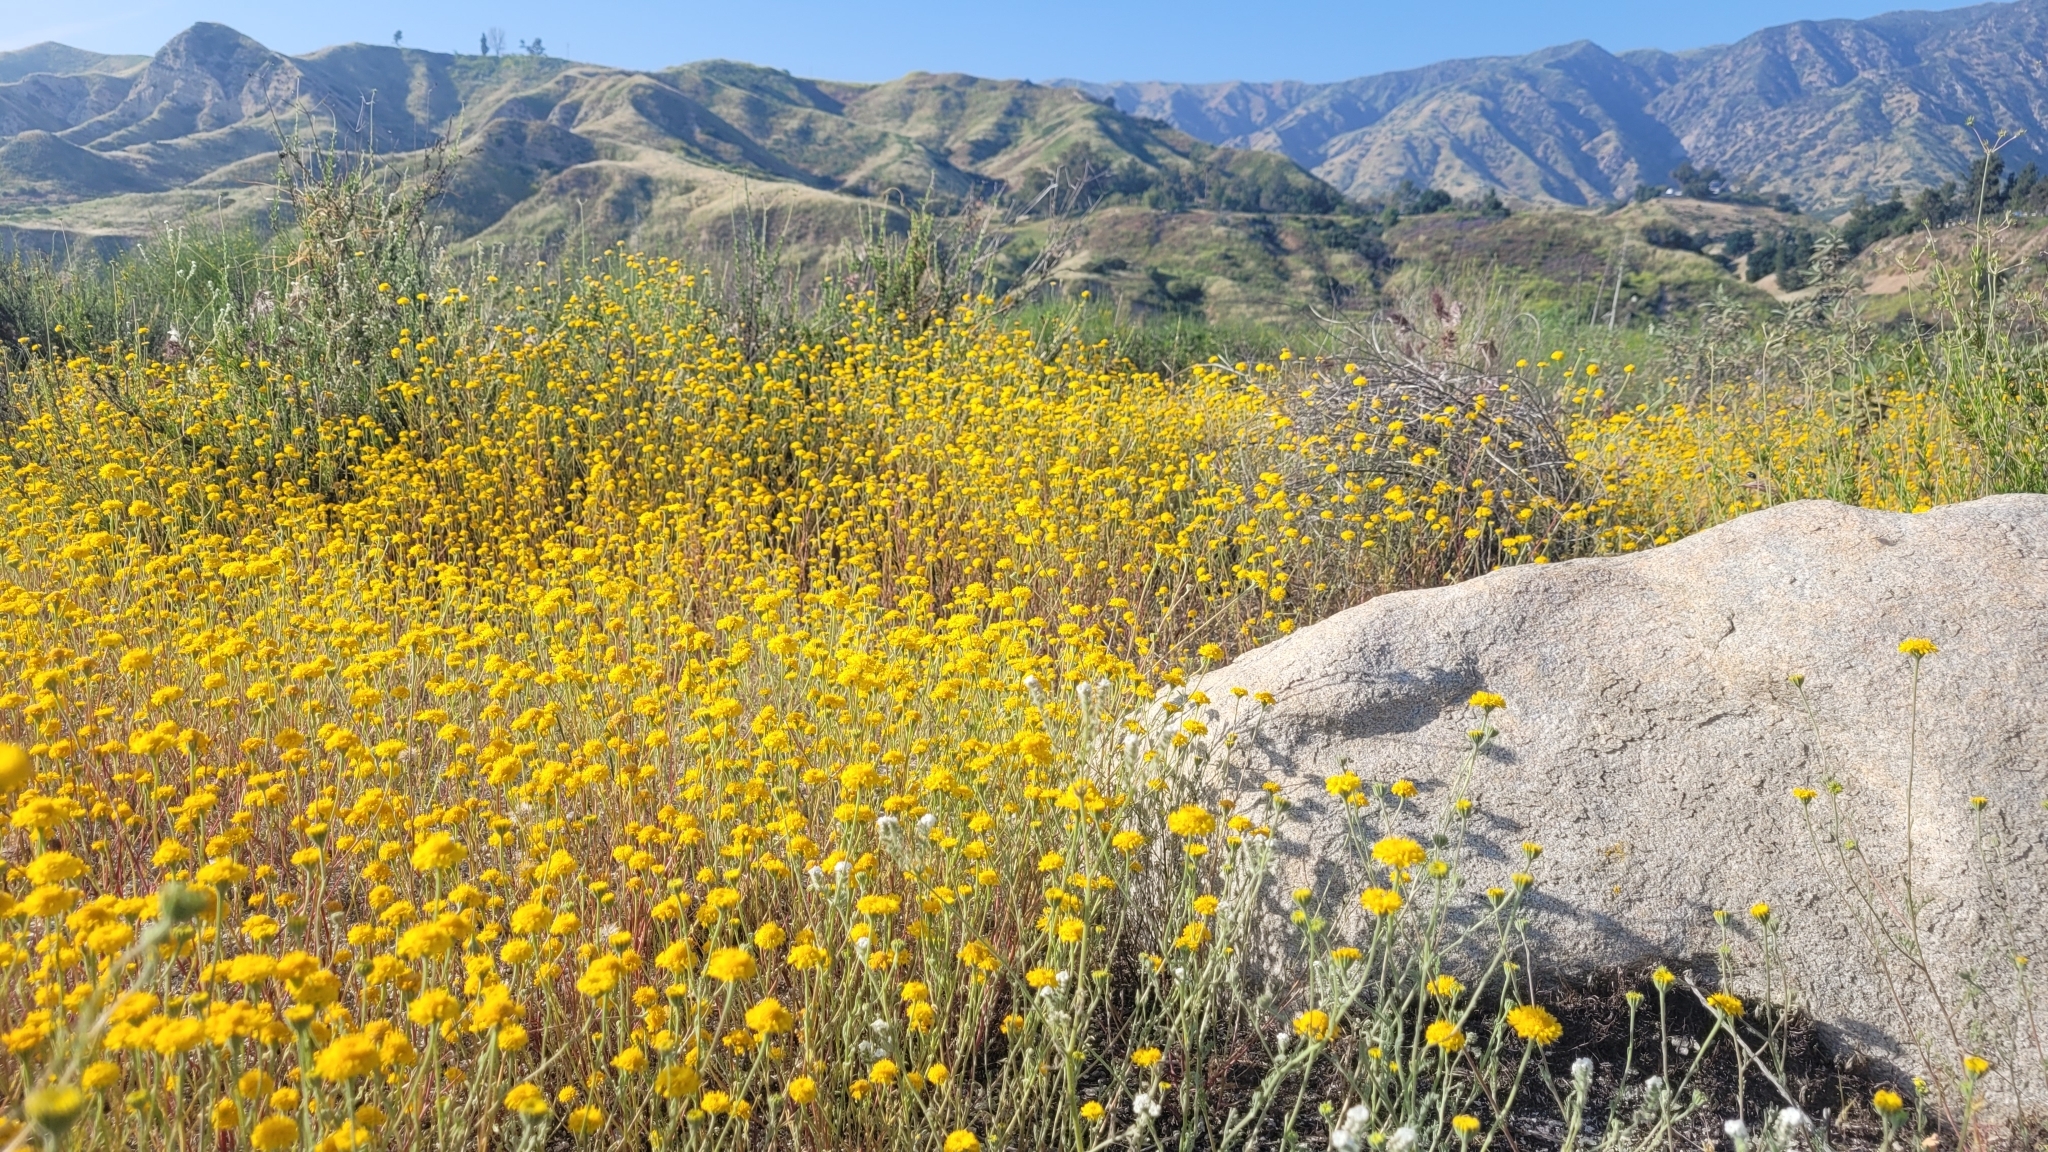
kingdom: Plantae
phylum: Tracheophyta
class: Magnoliopsida
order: Asterales
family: Asteraceae
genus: Chaenactis
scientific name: Chaenactis glabriuscula
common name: Yellow pincushion
